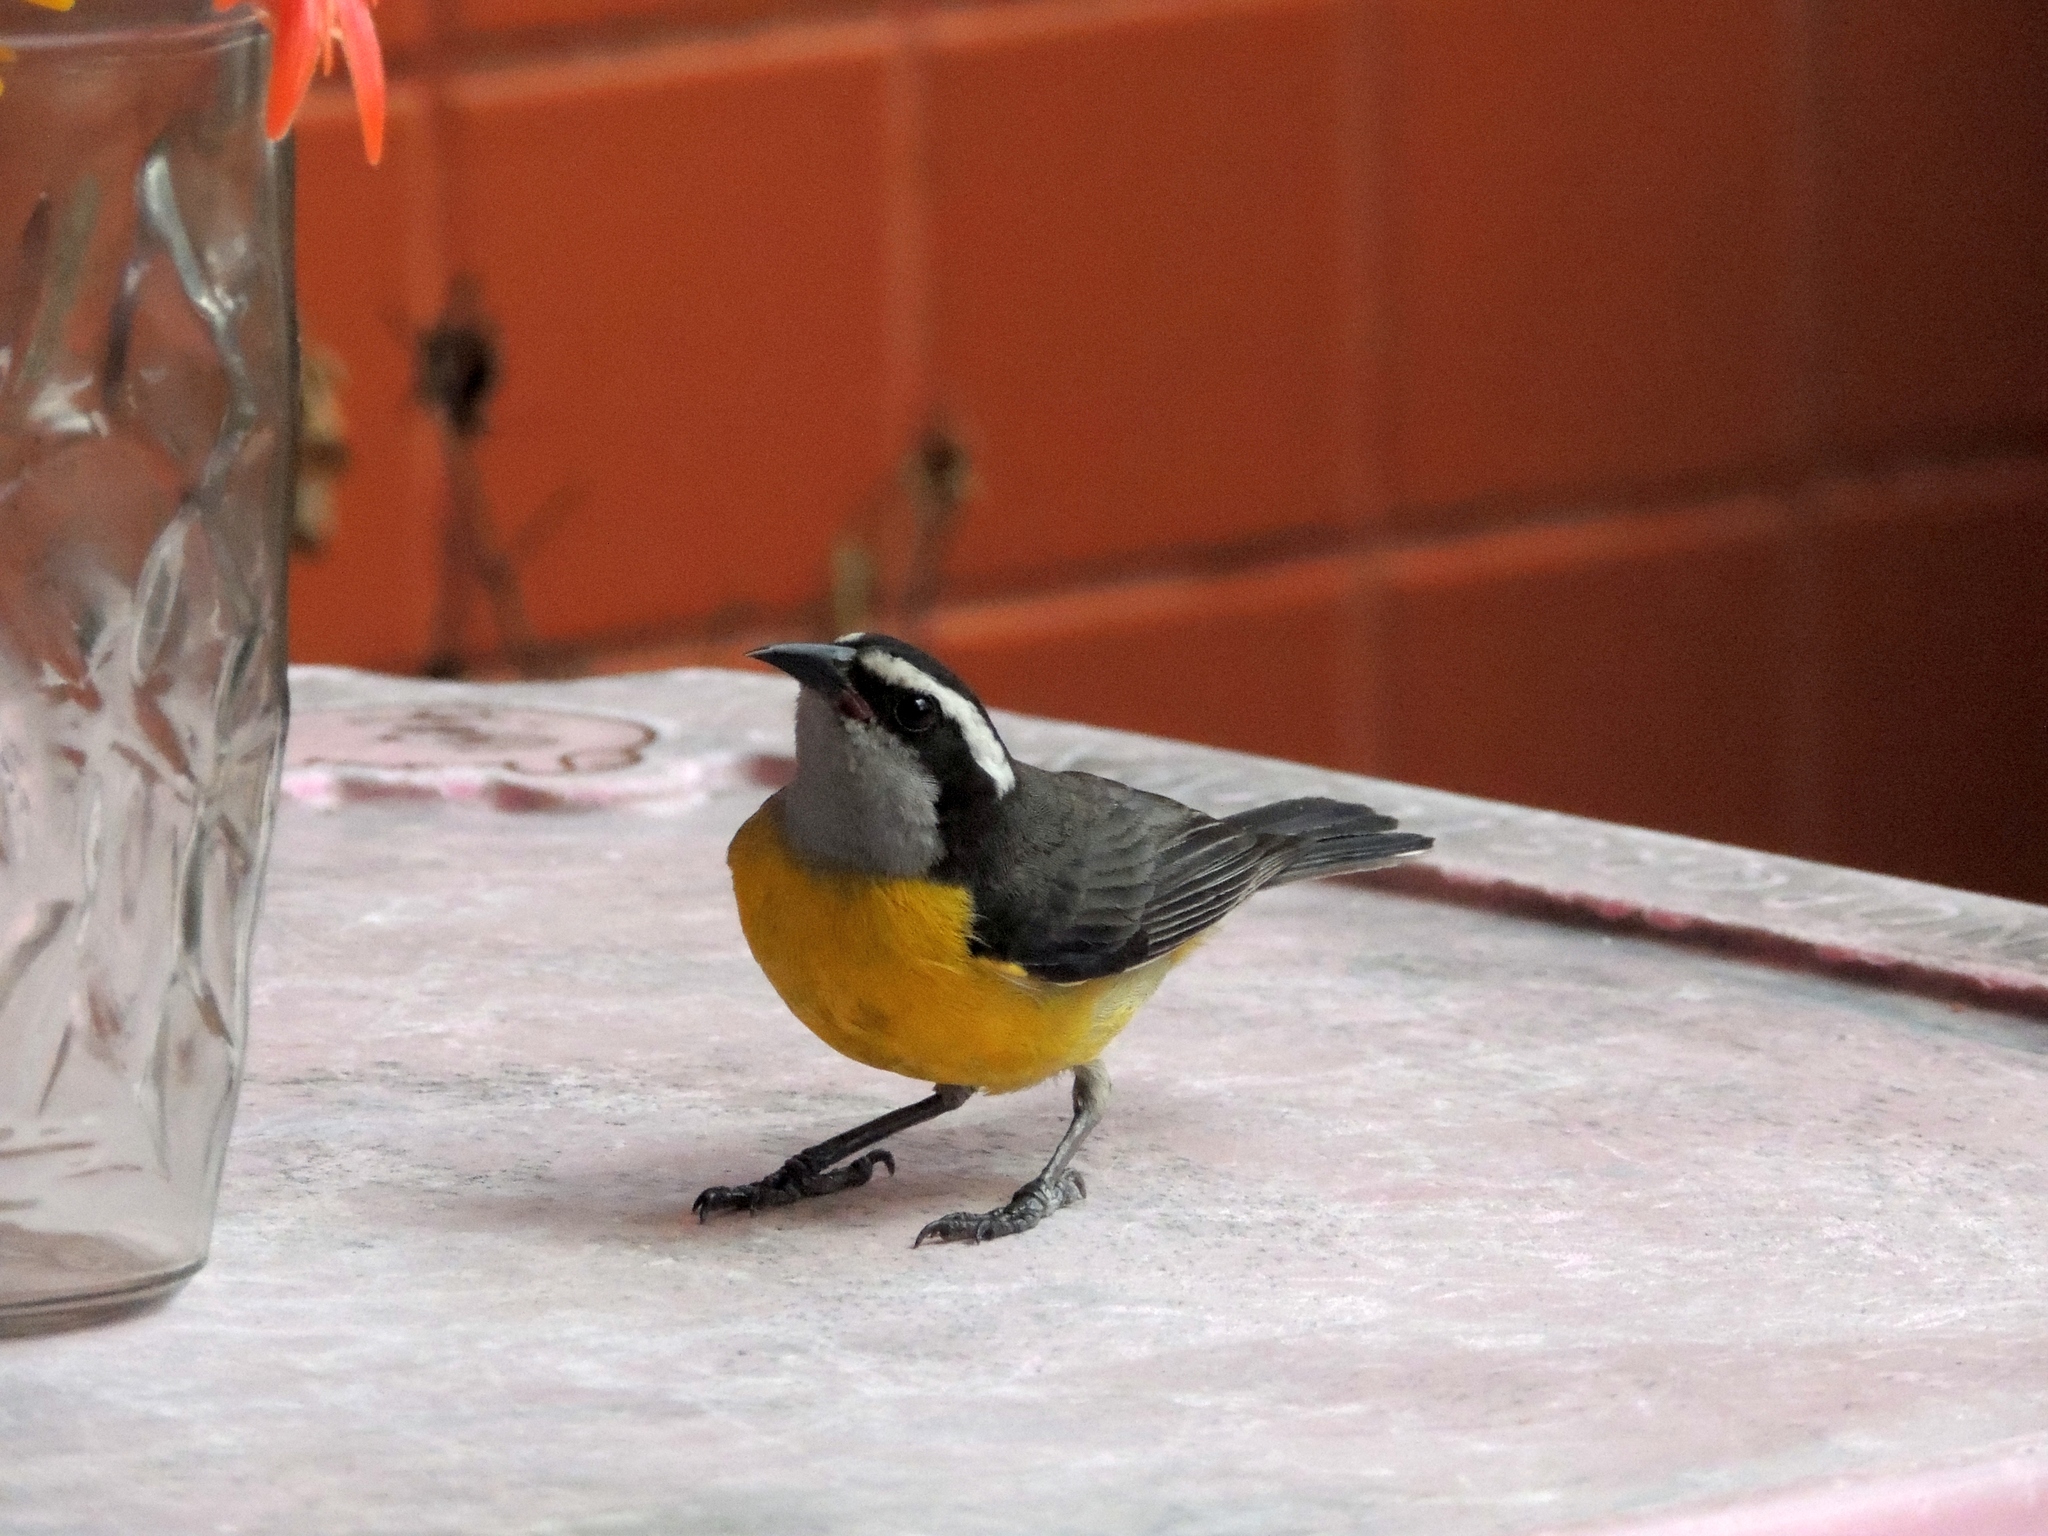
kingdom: Animalia
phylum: Chordata
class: Aves
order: Passeriformes
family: Thraupidae
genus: Coereba
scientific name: Coereba flaveola
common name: Bananaquit
